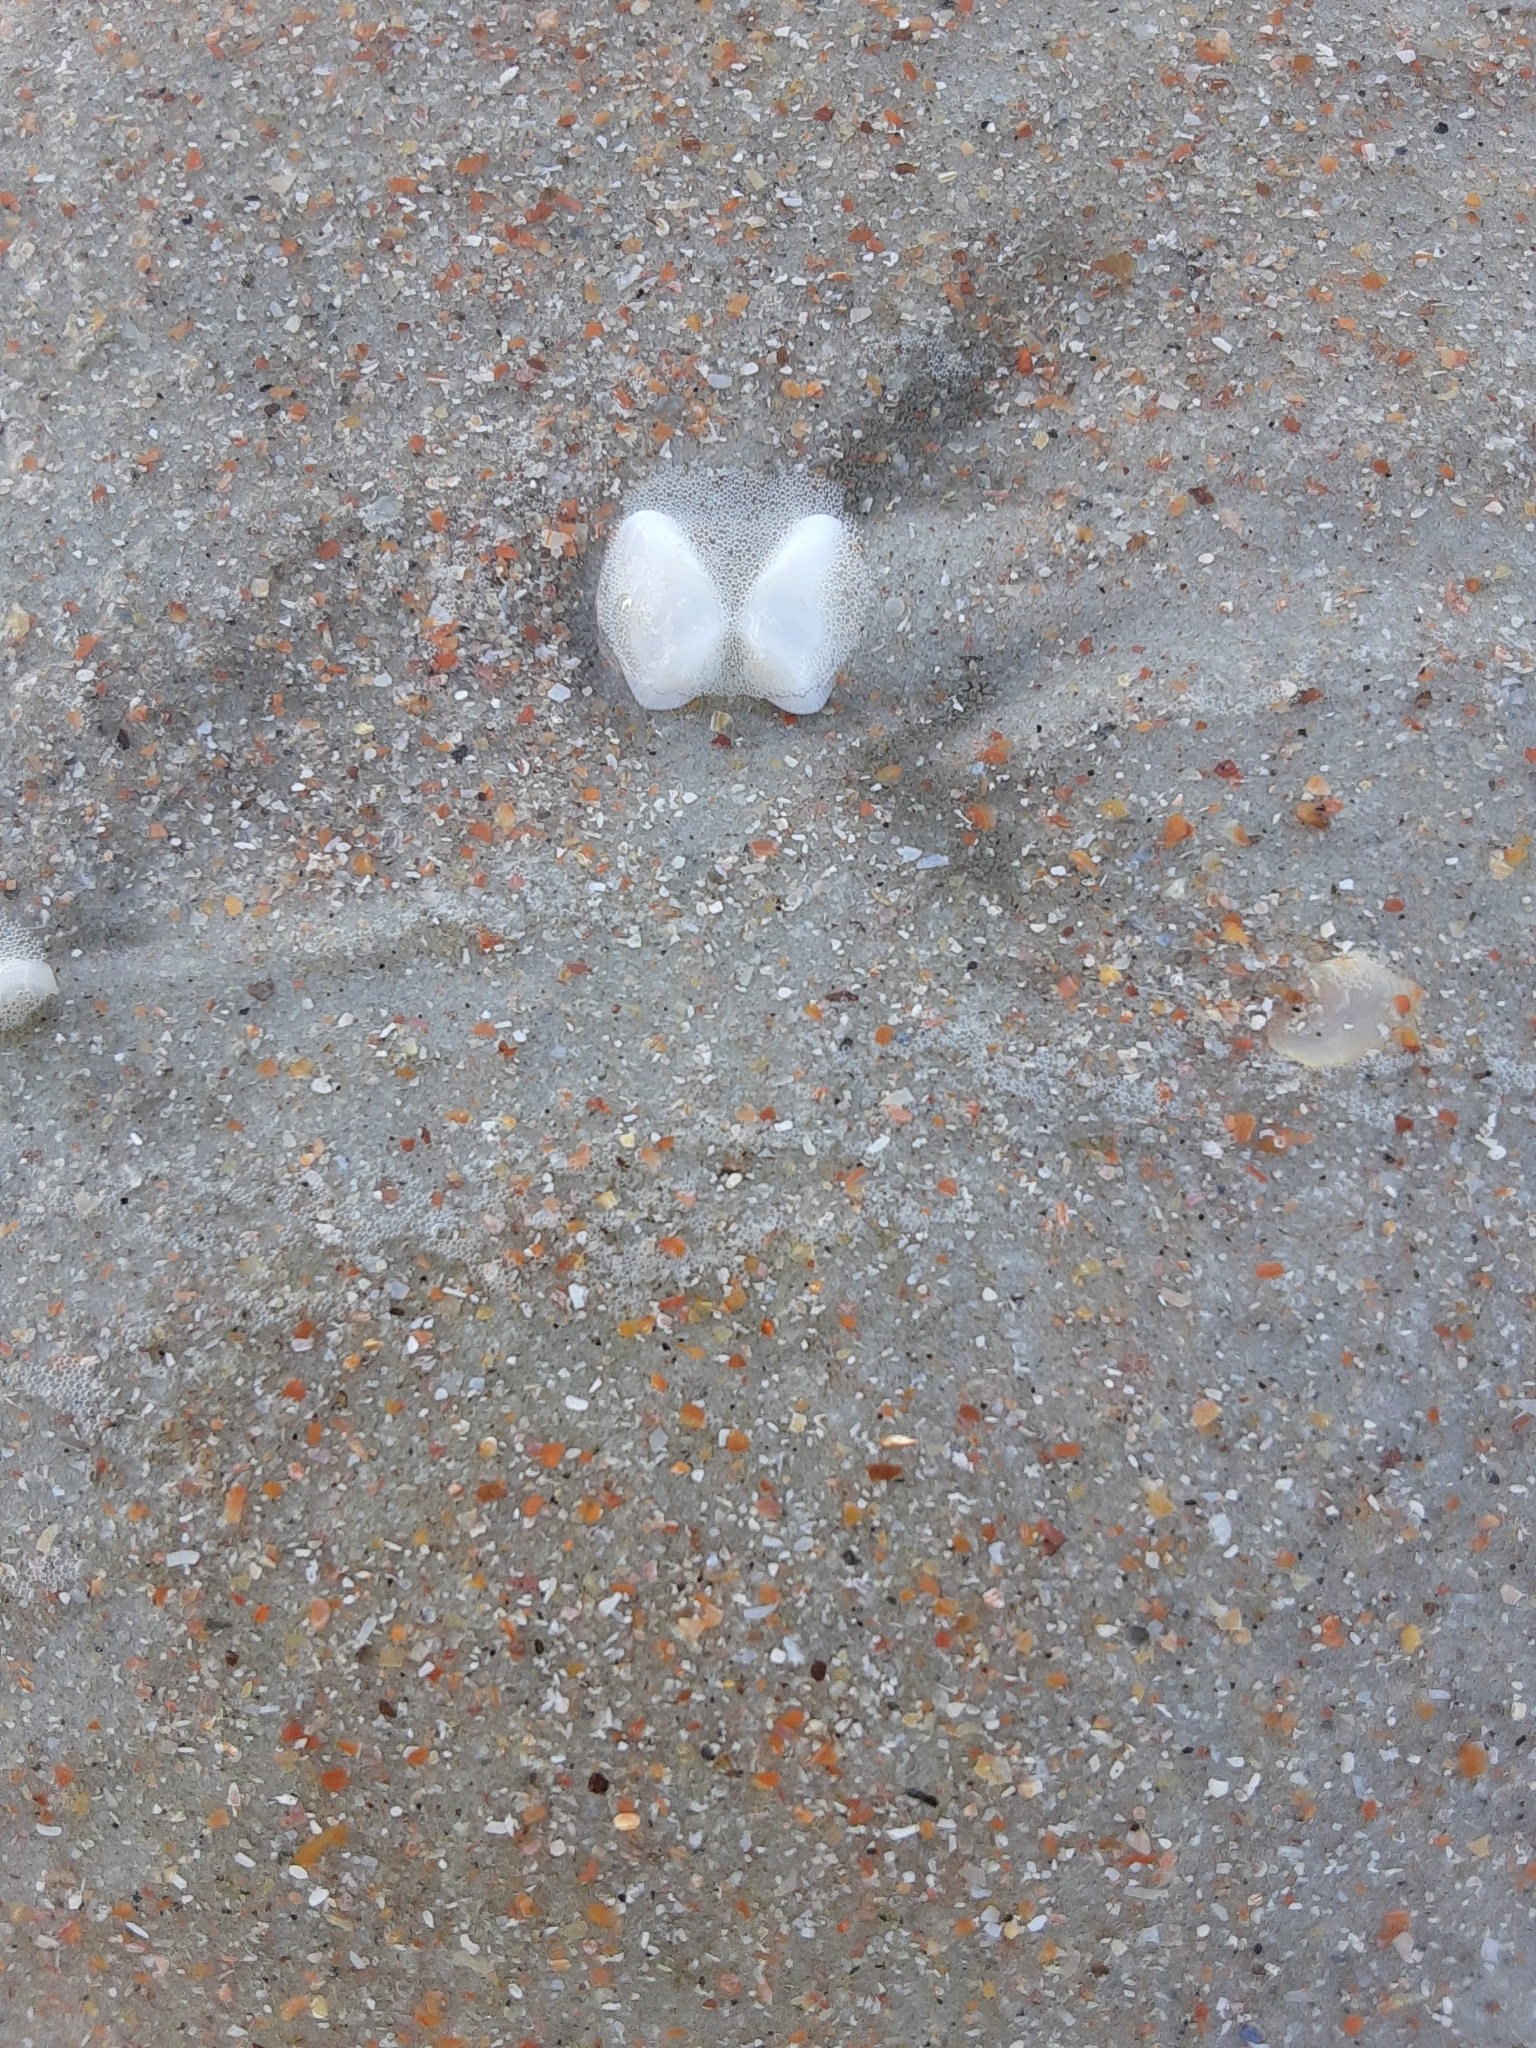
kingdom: Animalia
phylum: Mollusca
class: Bivalvia
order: Cardiida
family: Donacidae
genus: Donax
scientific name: Donax variabilis
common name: Butterfly shell
